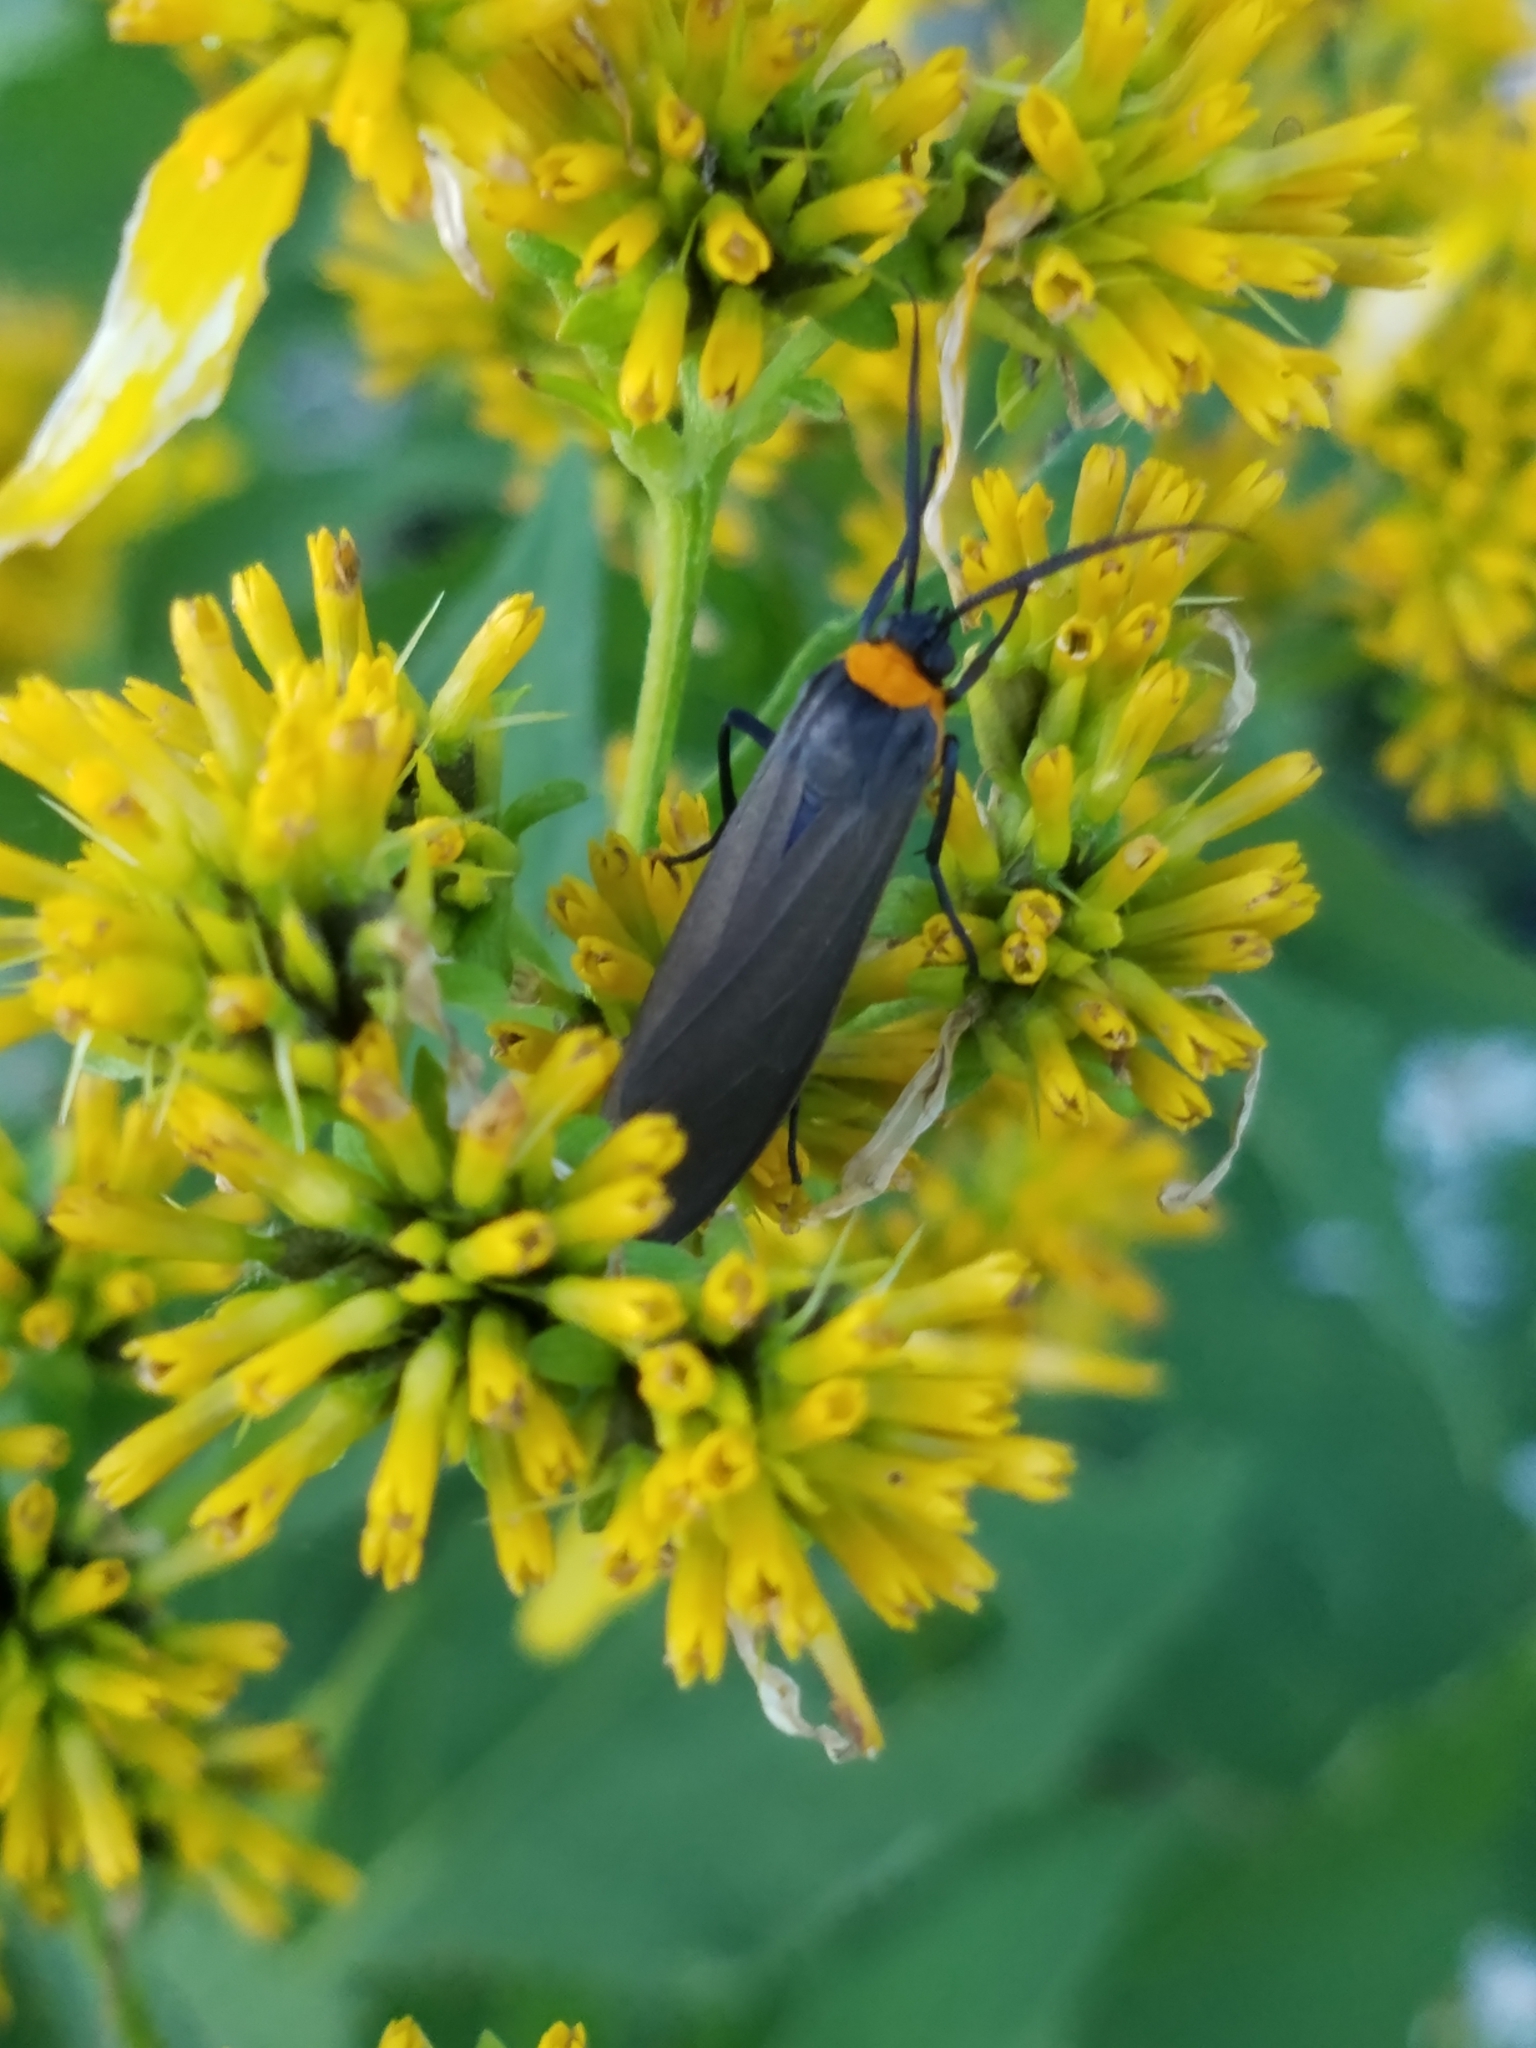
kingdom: Animalia
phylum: Arthropoda
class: Insecta
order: Lepidoptera
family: Erebidae
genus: Cisseps
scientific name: Cisseps fulvicollis
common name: Yellow-collared scape moth
